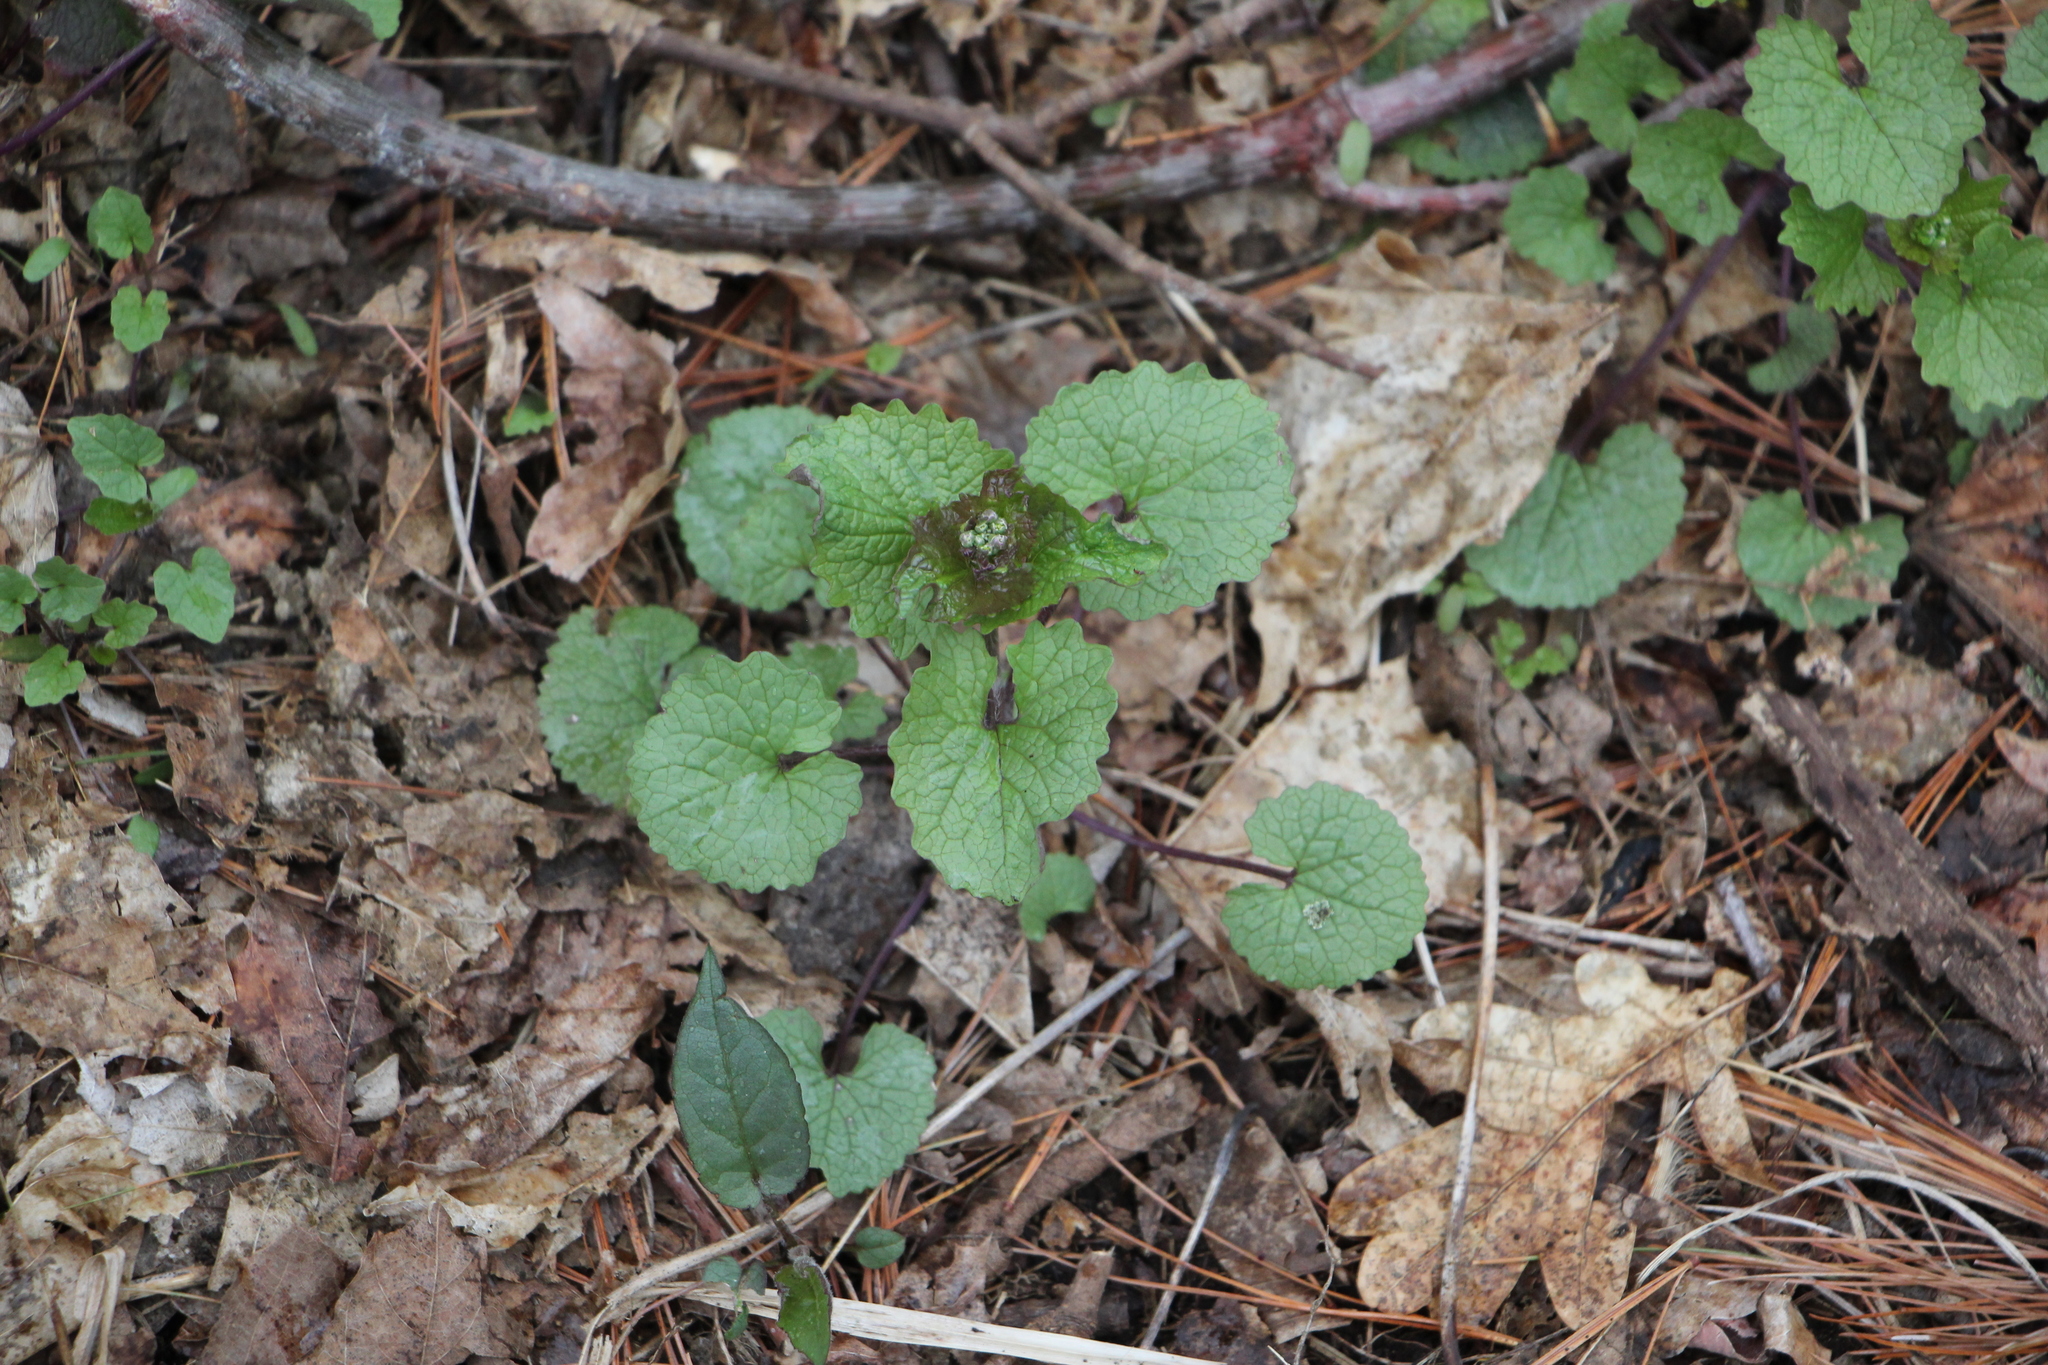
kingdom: Plantae
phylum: Tracheophyta
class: Magnoliopsida
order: Brassicales
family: Brassicaceae
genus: Alliaria
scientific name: Alliaria petiolata
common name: Garlic mustard
